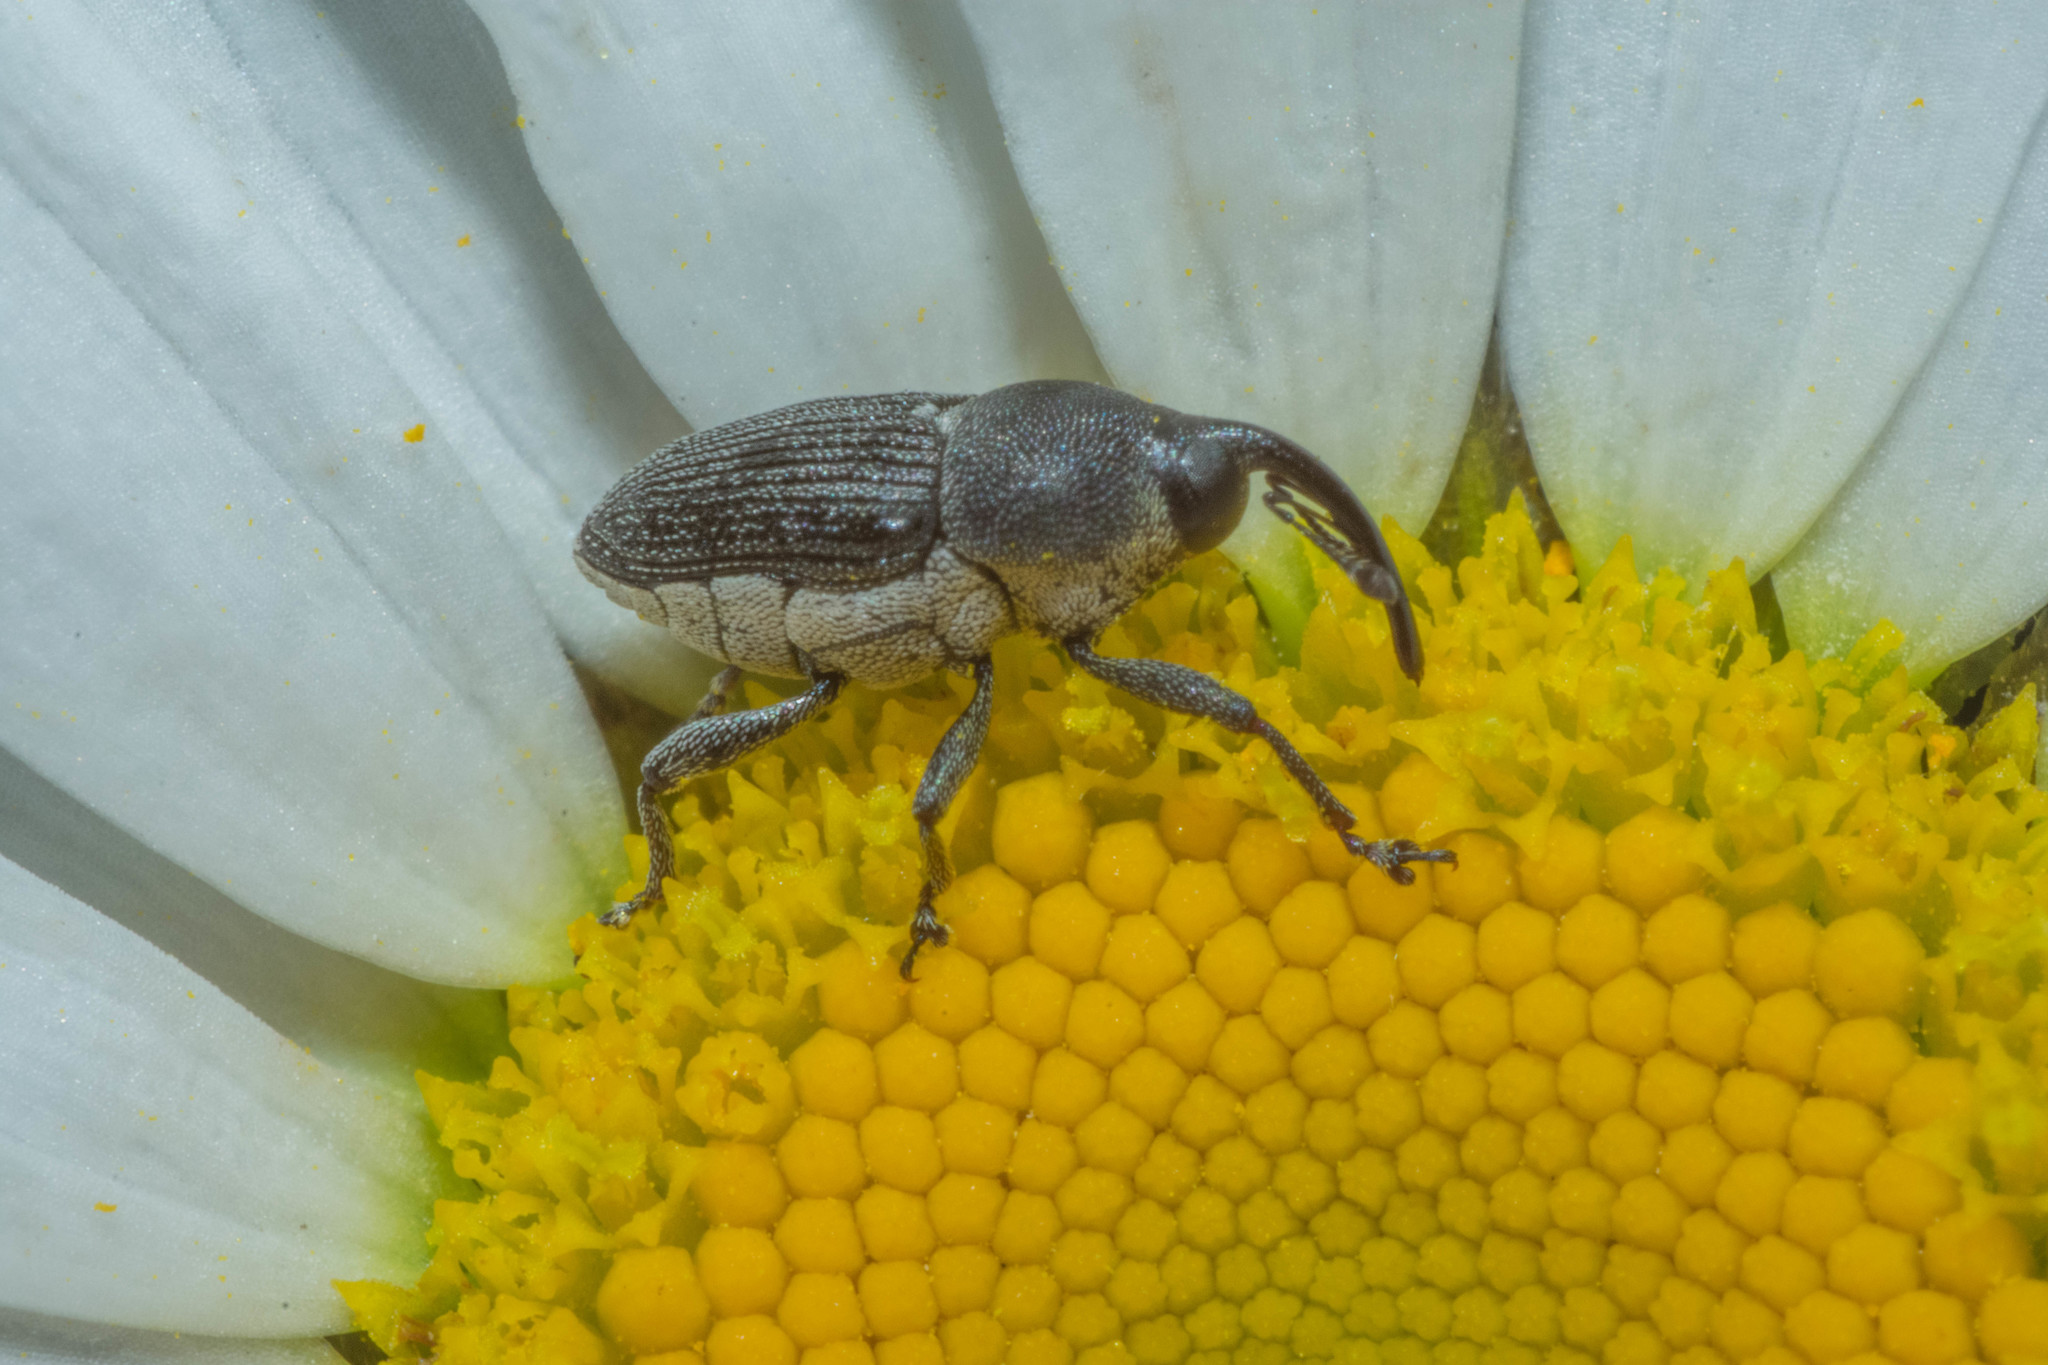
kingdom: Animalia
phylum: Arthropoda
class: Insecta
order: Coleoptera
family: Curculionidae
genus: Odontocorynus
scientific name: Odontocorynus salebrosus
